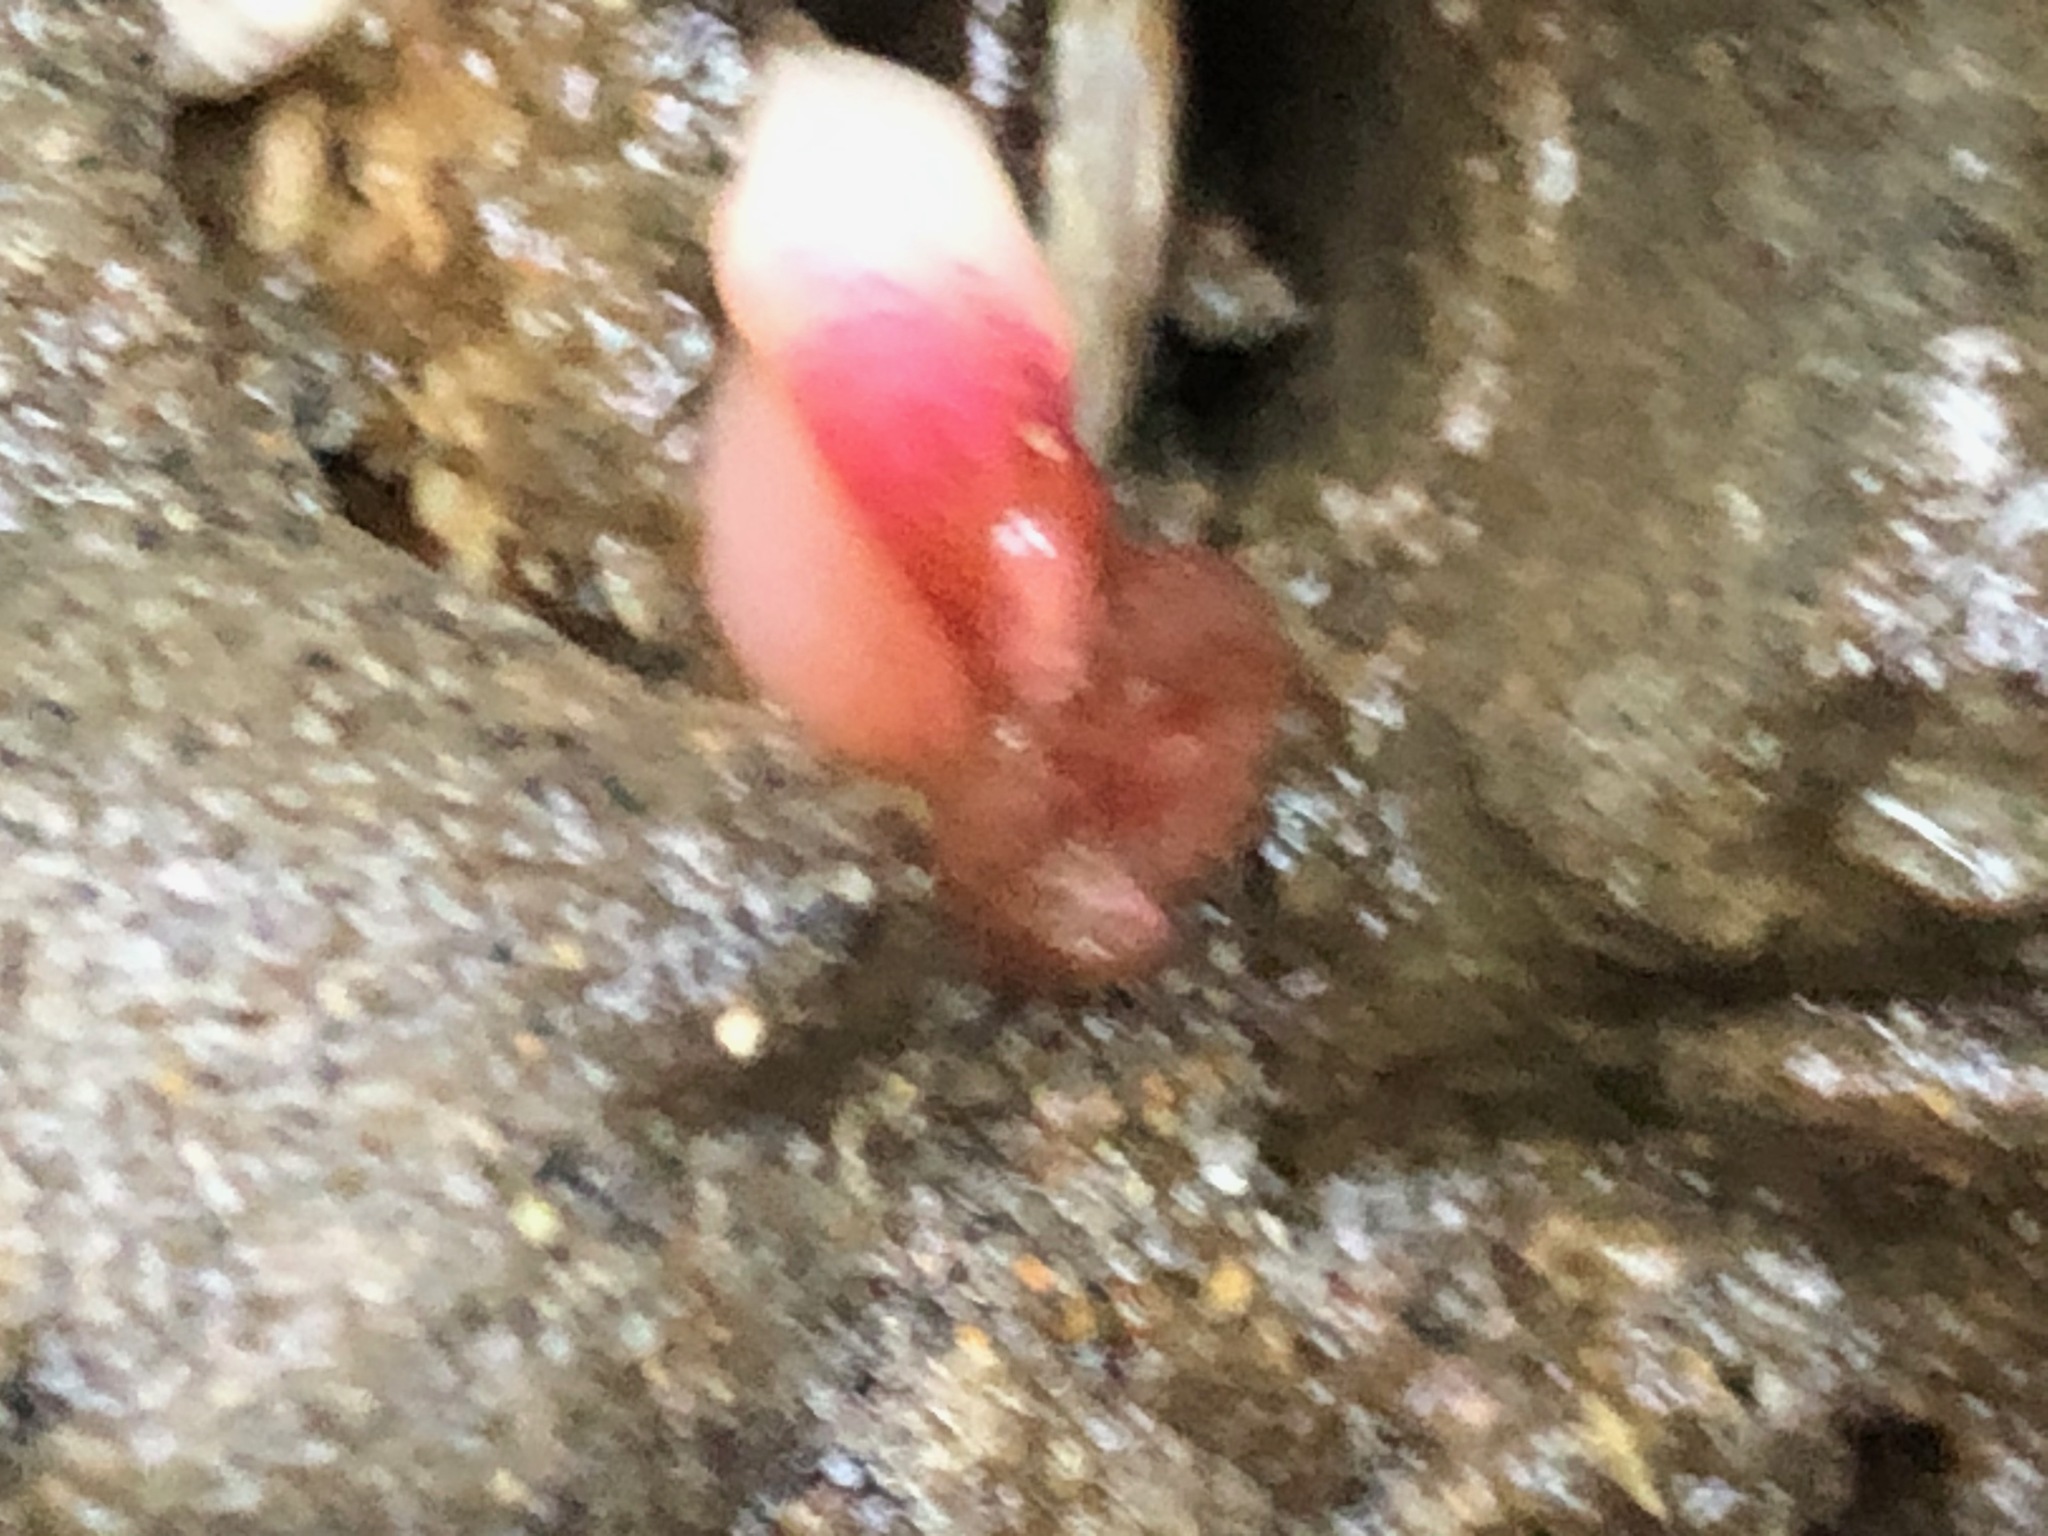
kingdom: Animalia
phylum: Mollusca
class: Bivalvia
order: Adapedonta
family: Hiatellidae
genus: Hiatella
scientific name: Hiatella arctica
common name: Arctic hiatella
